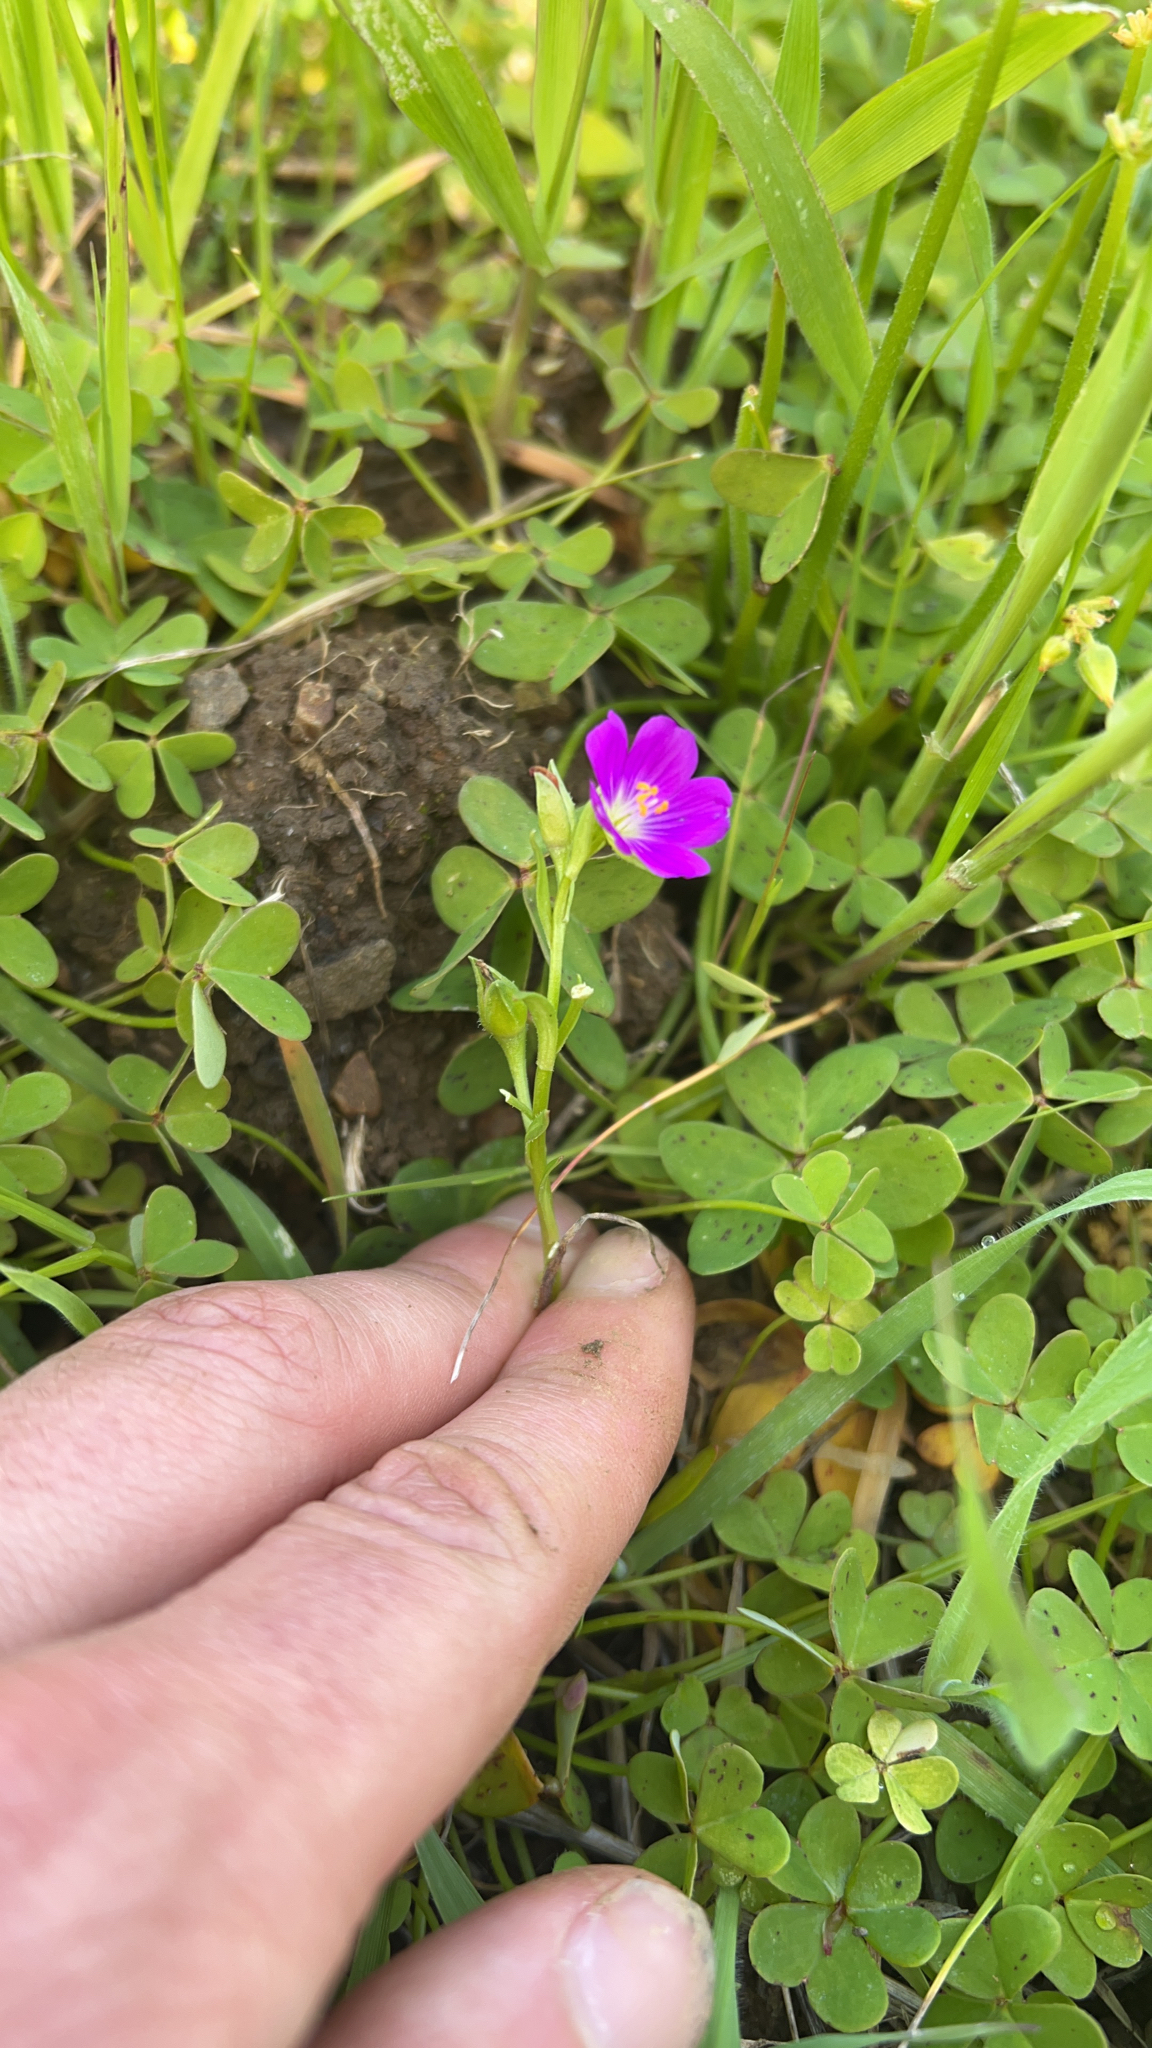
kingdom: Plantae
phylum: Tracheophyta
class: Magnoliopsida
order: Caryophyllales
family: Montiaceae
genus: Calandrinia
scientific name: Calandrinia menziesii
